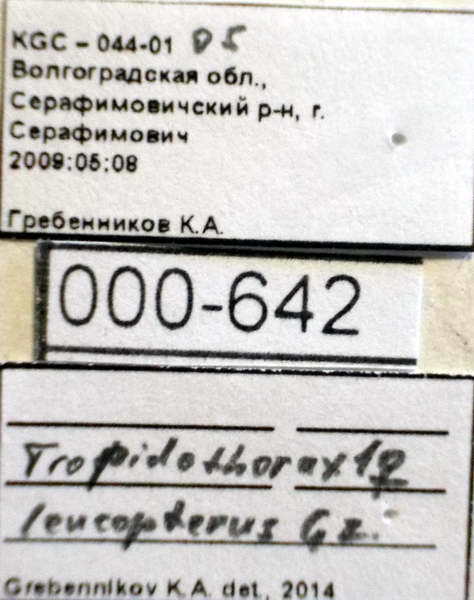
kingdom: Animalia
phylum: Arthropoda
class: Insecta
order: Hemiptera
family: Lygaeidae
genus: Tropidothorax
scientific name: Tropidothorax leucopterus
